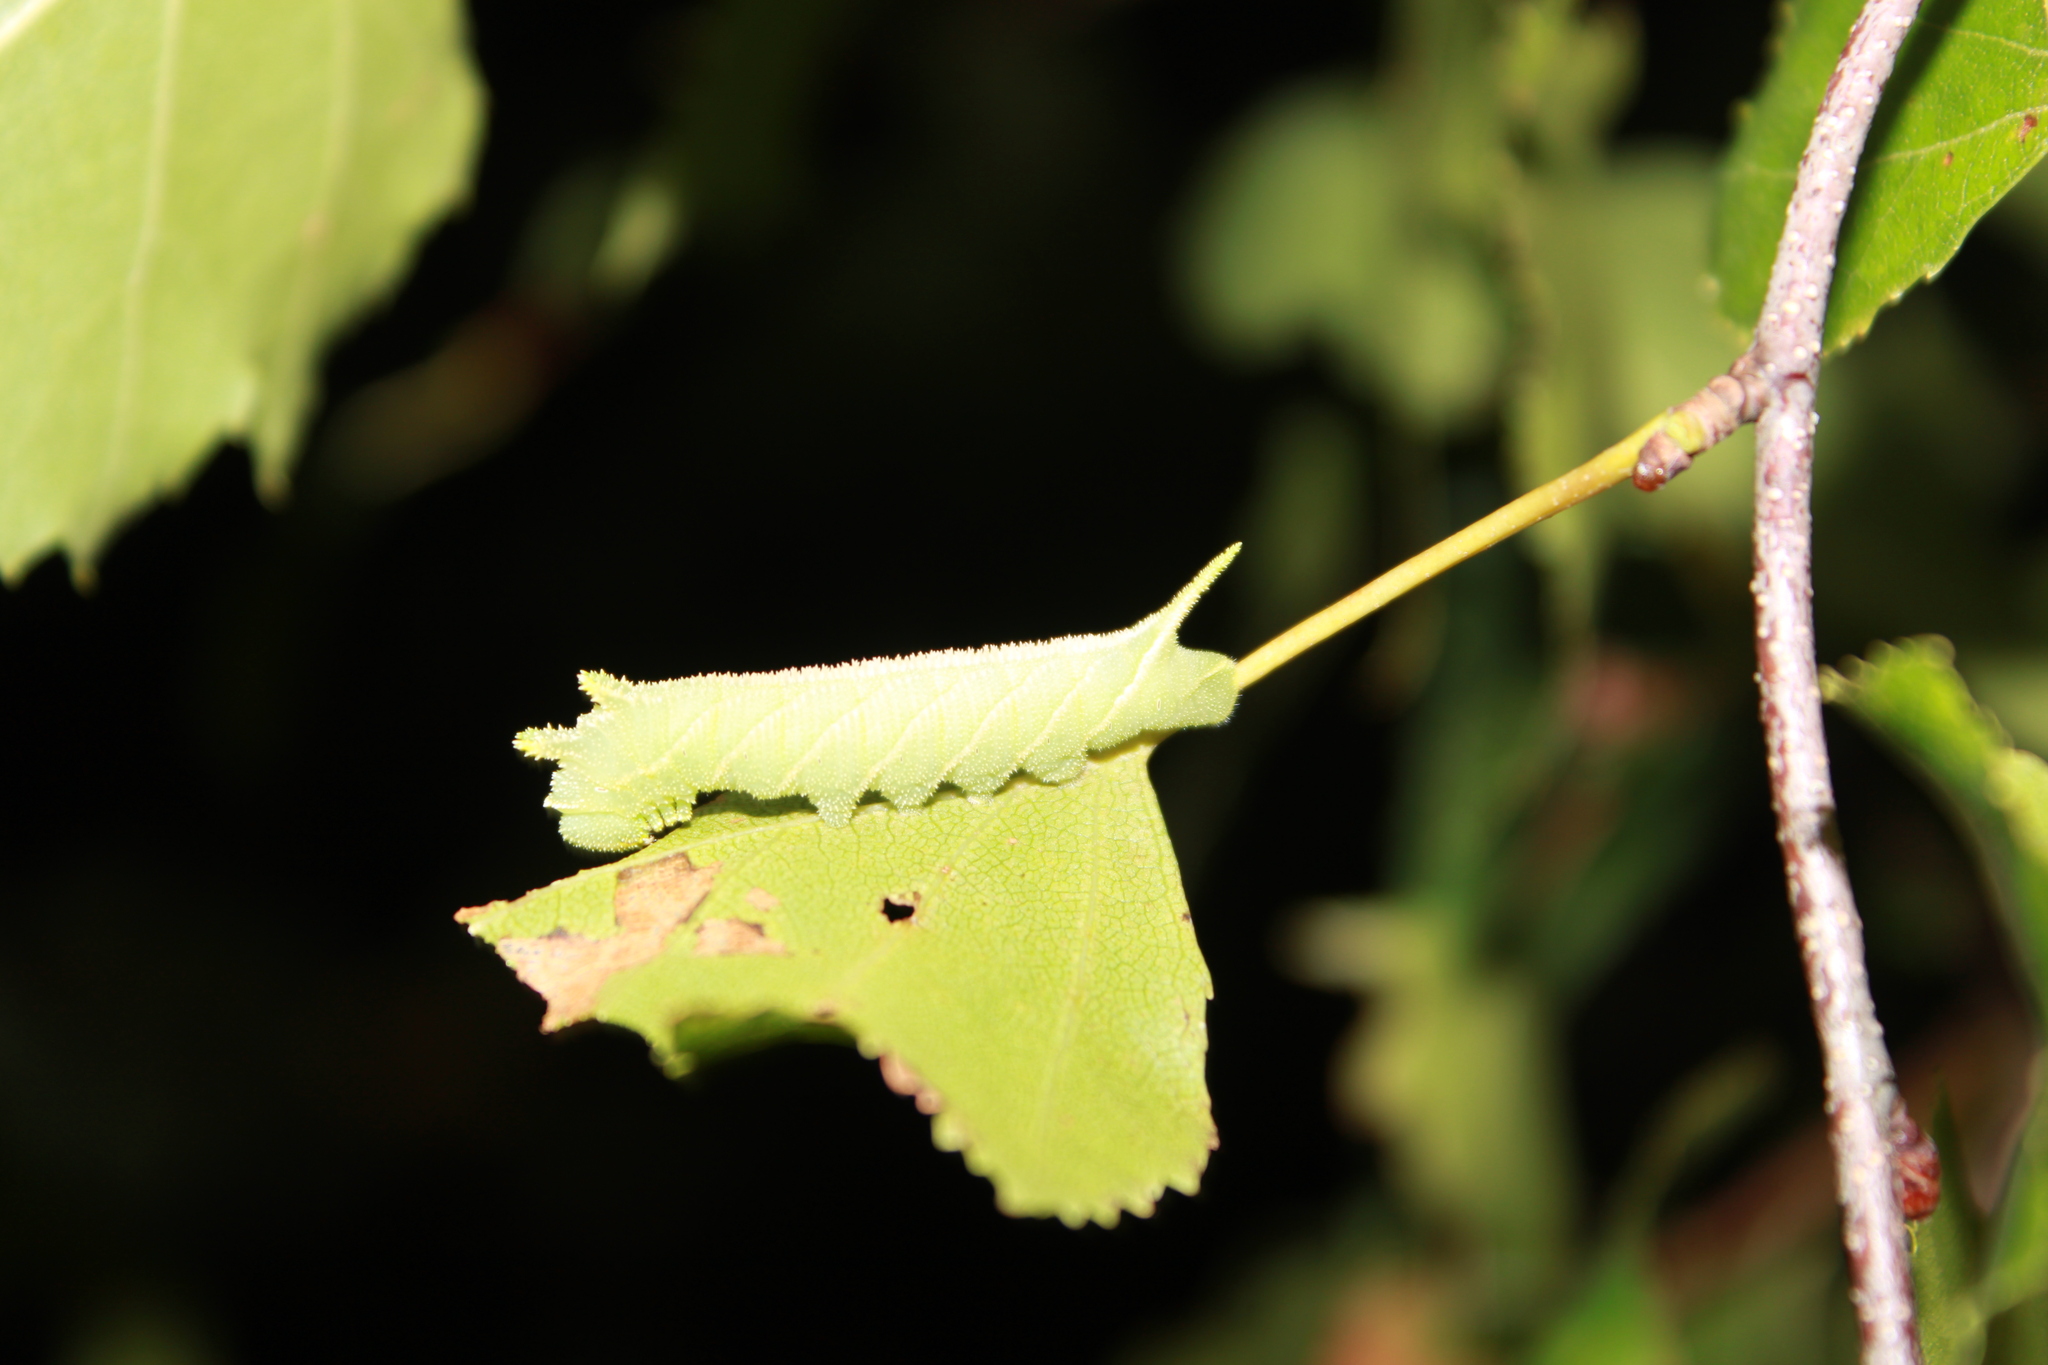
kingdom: Animalia
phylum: Arthropoda
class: Insecta
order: Lepidoptera
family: Sphingidae
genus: Ceratomia
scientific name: Ceratomia amyntor
